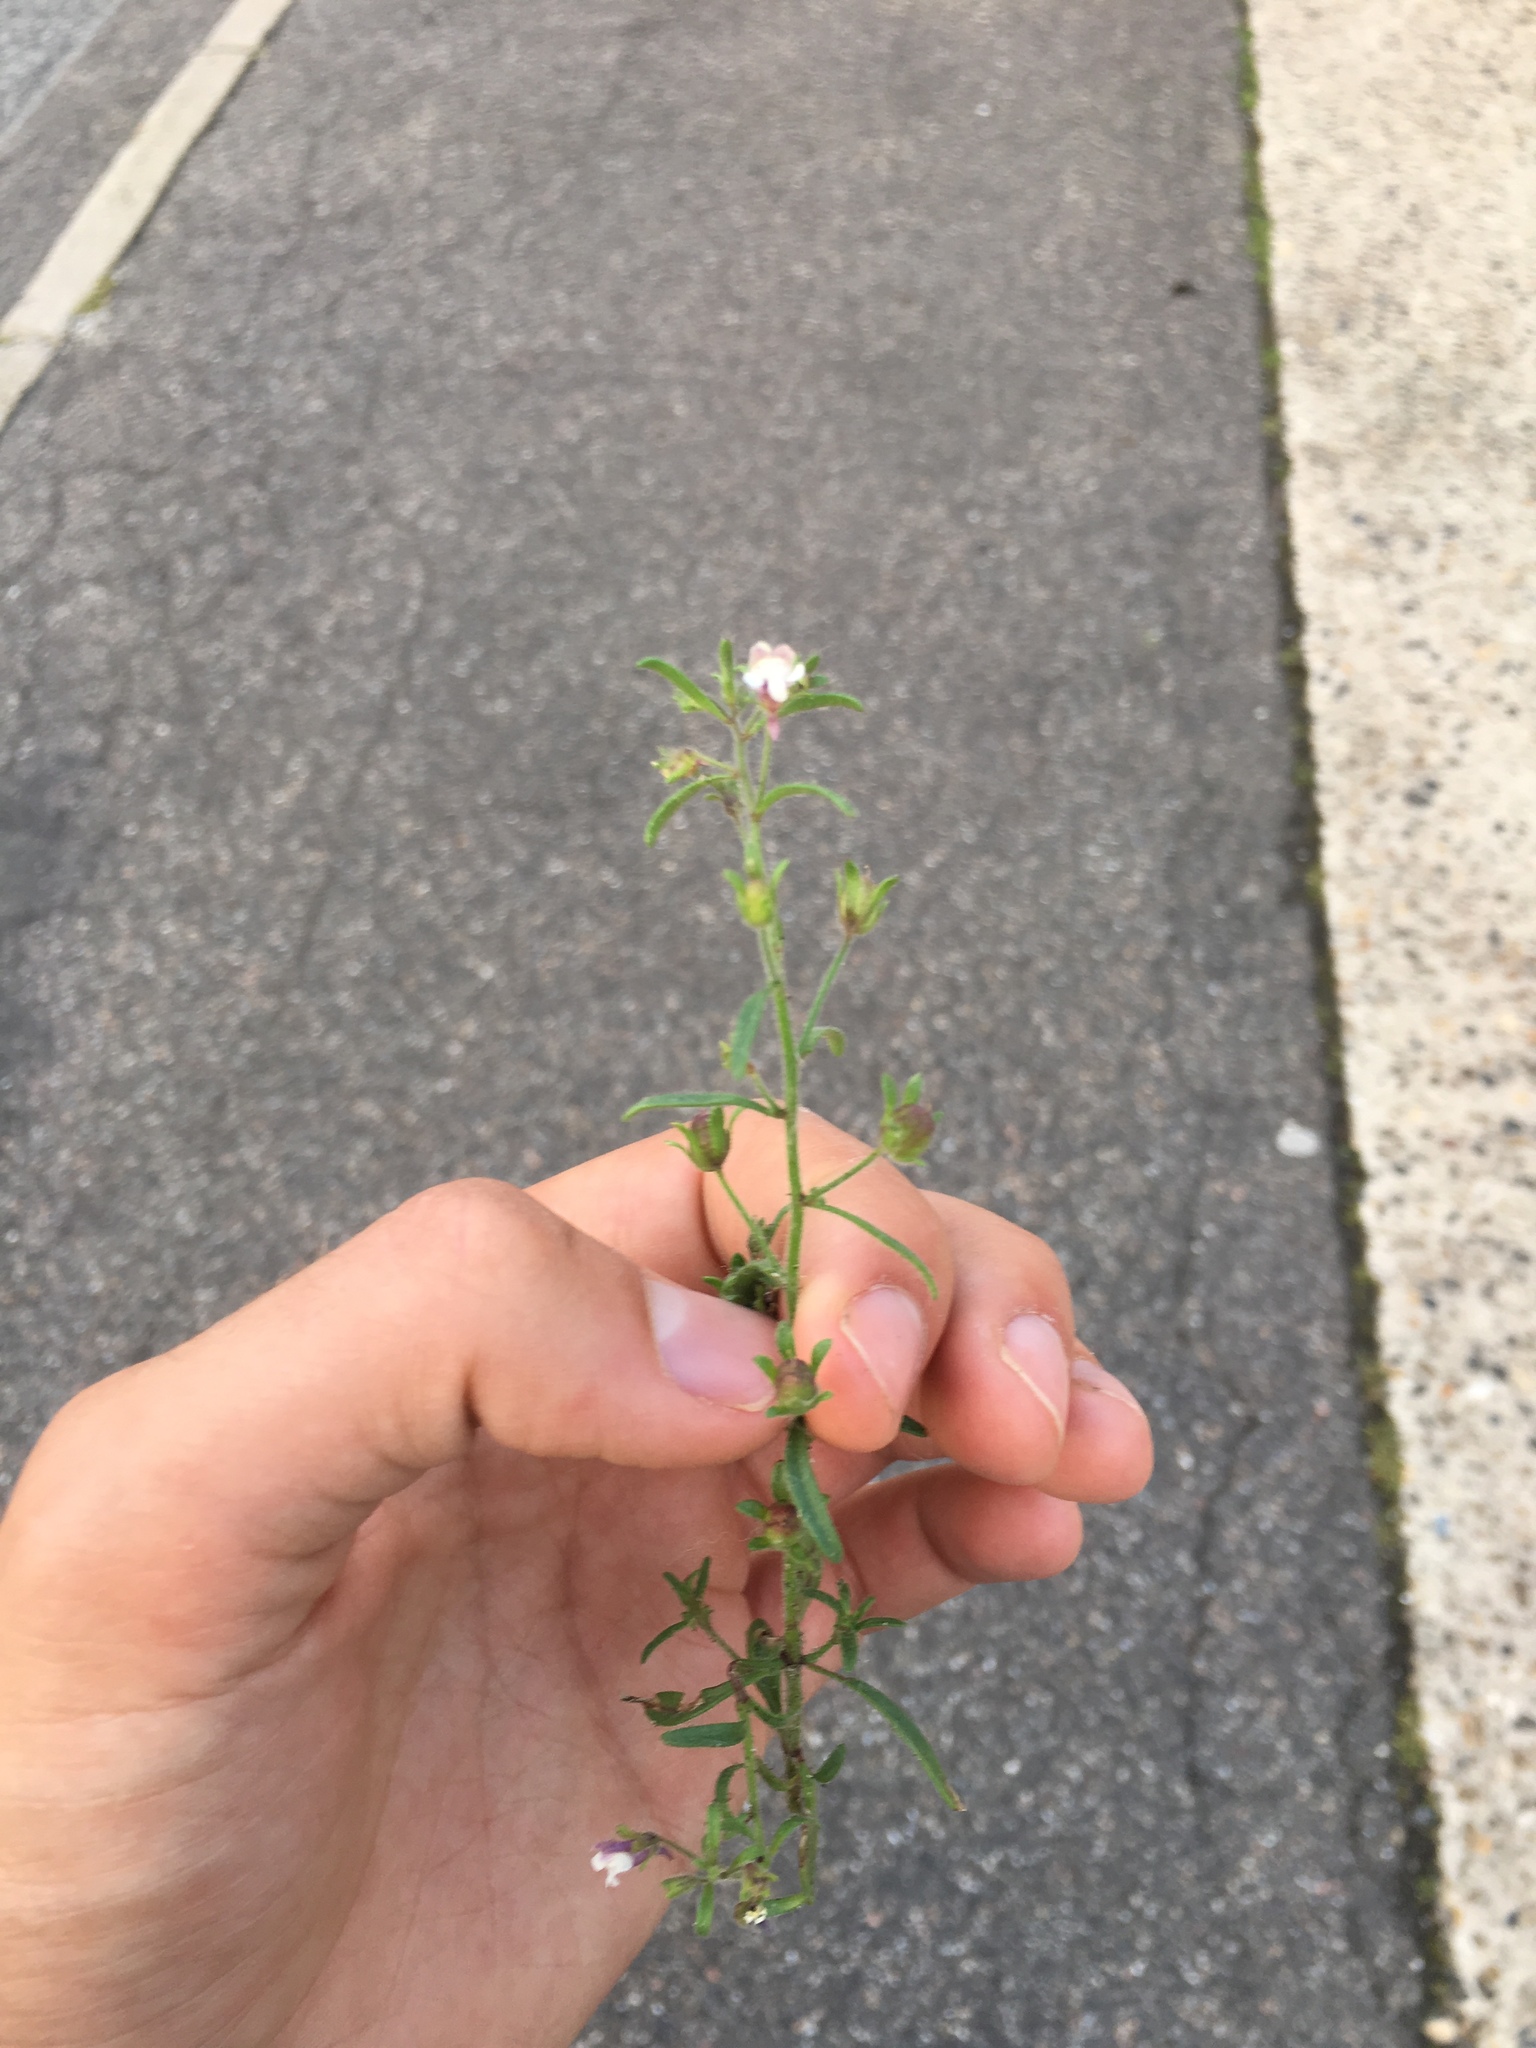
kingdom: Plantae
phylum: Tracheophyta
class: Magnoliopsida
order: Lamiales
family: Plantaginaceae
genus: Chaenorhinum
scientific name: Chaenorhinum minus
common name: Dwarf snapdragon
